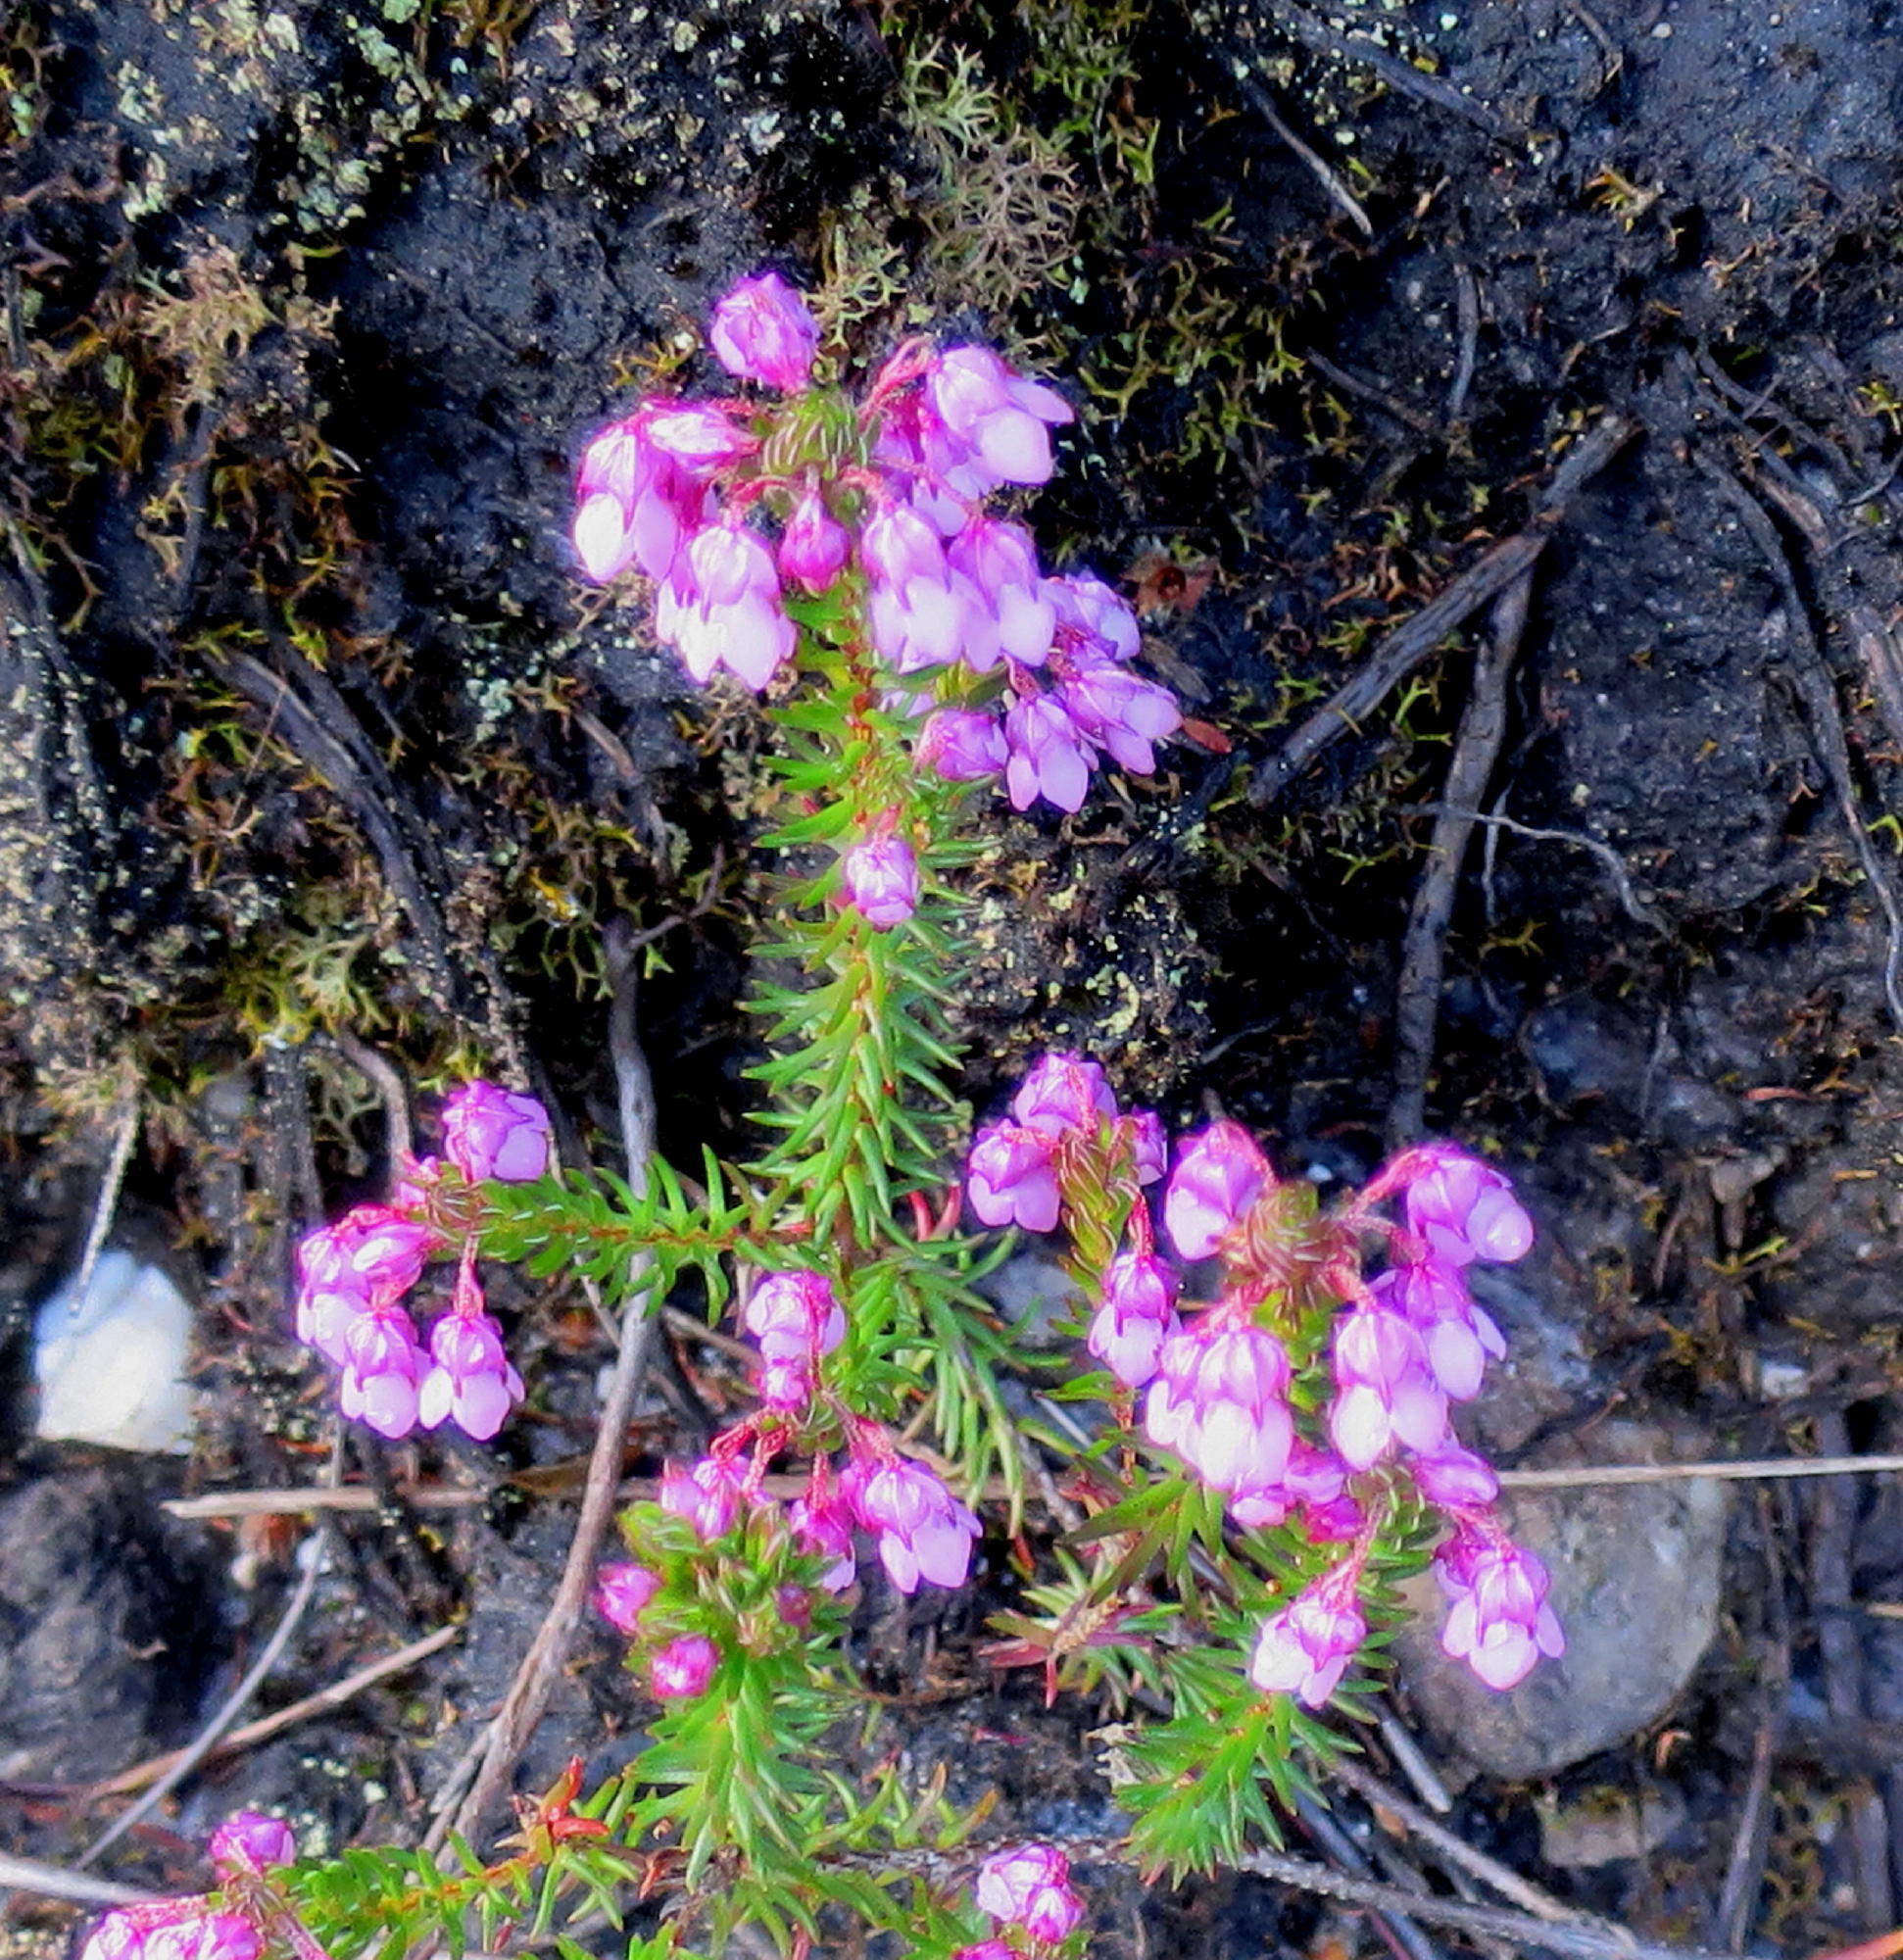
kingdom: Plantae
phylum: Tracheophyta
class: Magnoliopsida
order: Ericales
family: Ericaceae
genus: Erica
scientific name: Erica cubica
